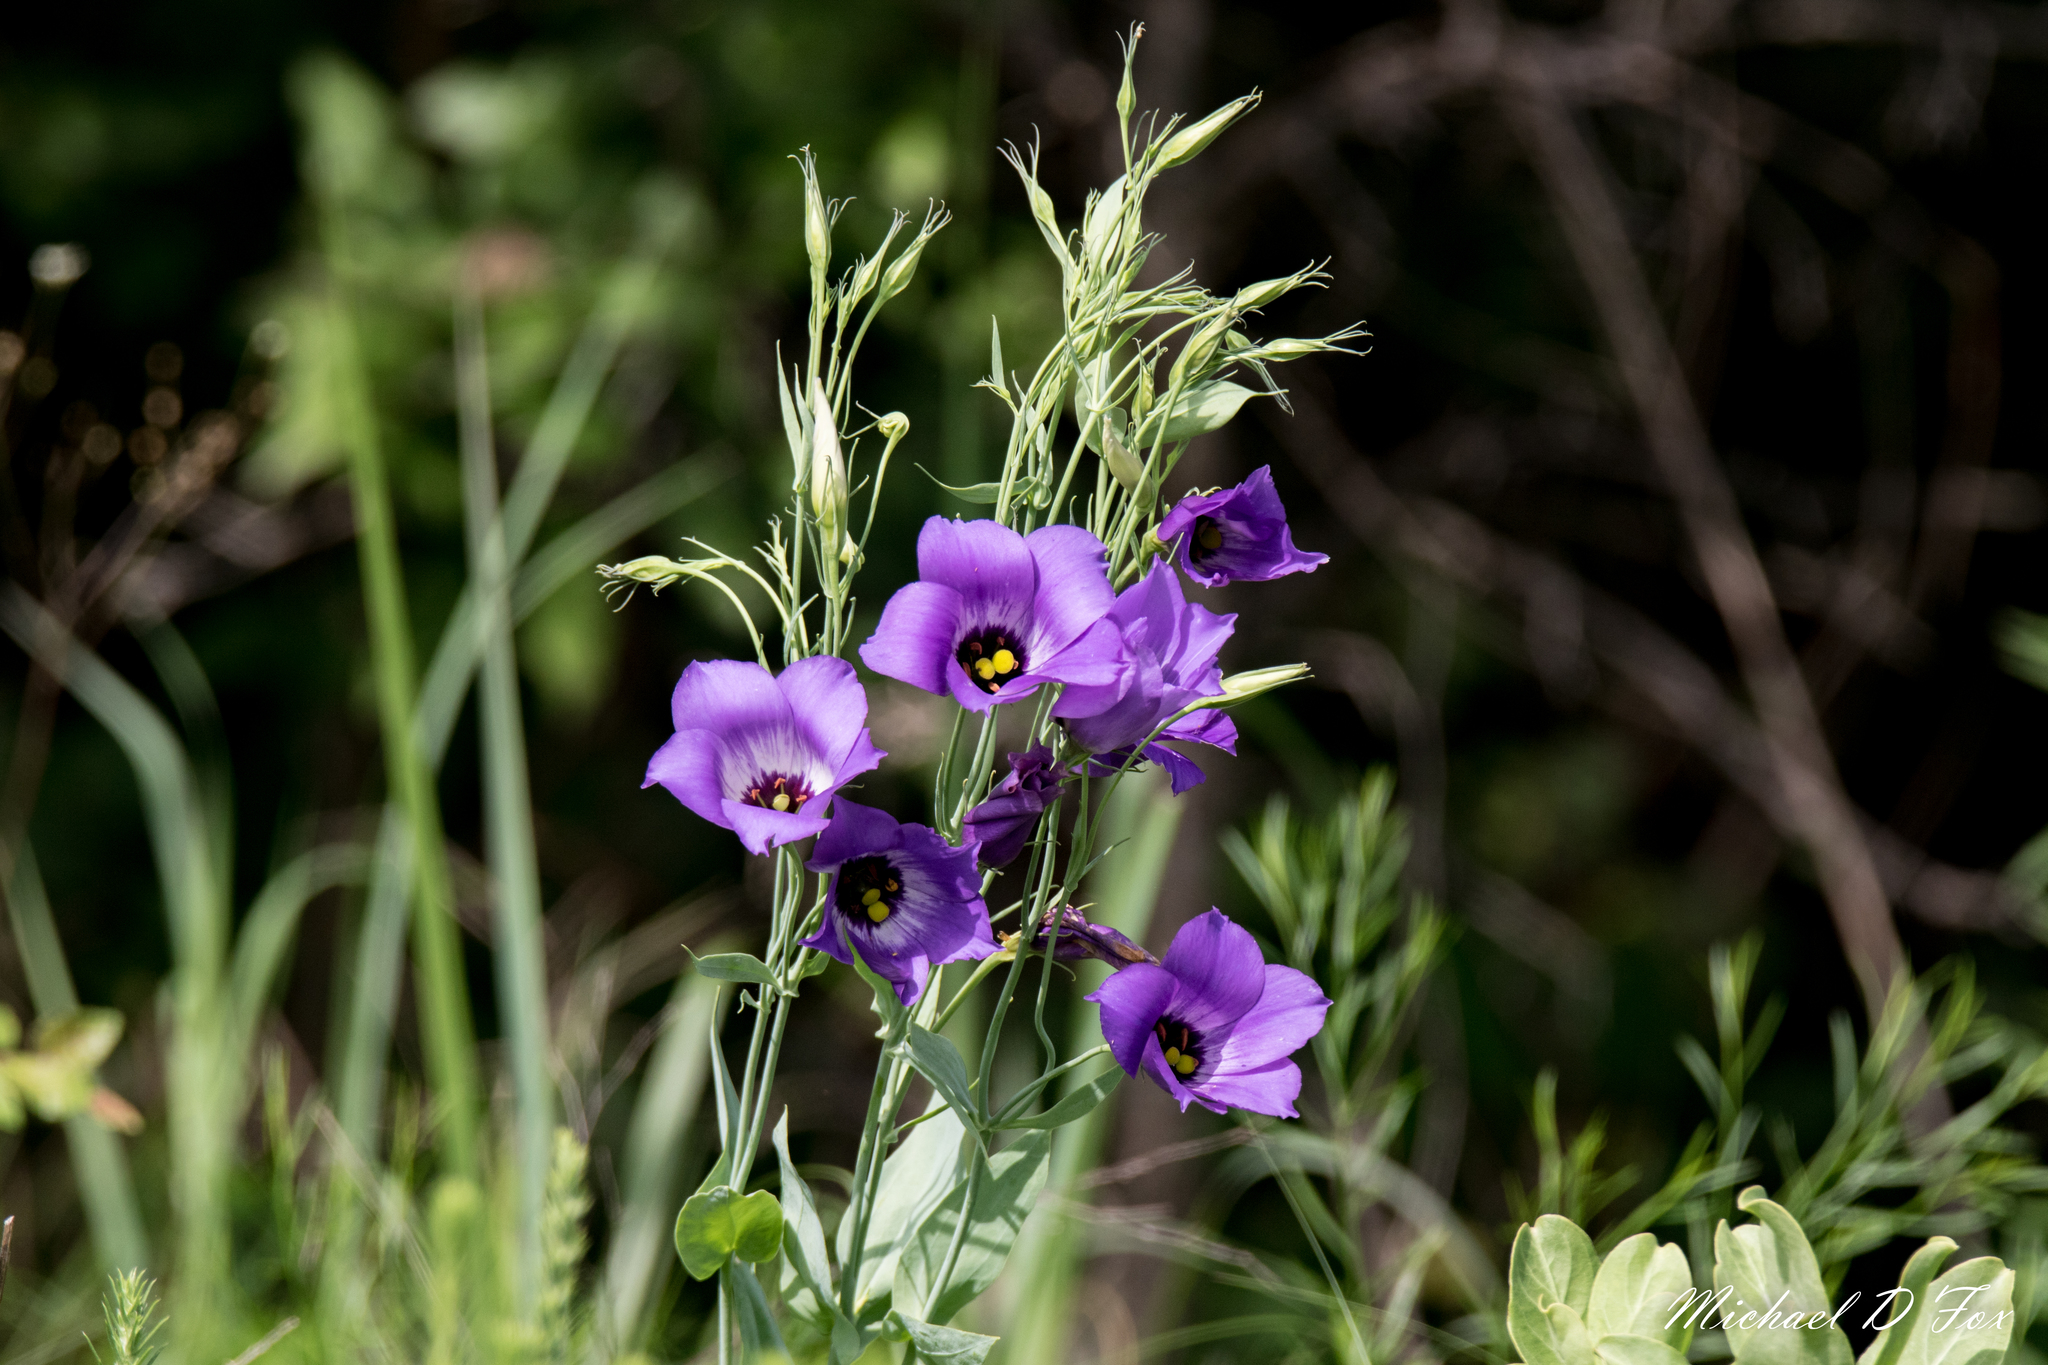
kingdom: Plantae
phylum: Tracheophyta
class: Magnoliopsida
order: Gentianales
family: Gentianaceae
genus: Eustoma
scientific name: Eustoma russellianum
